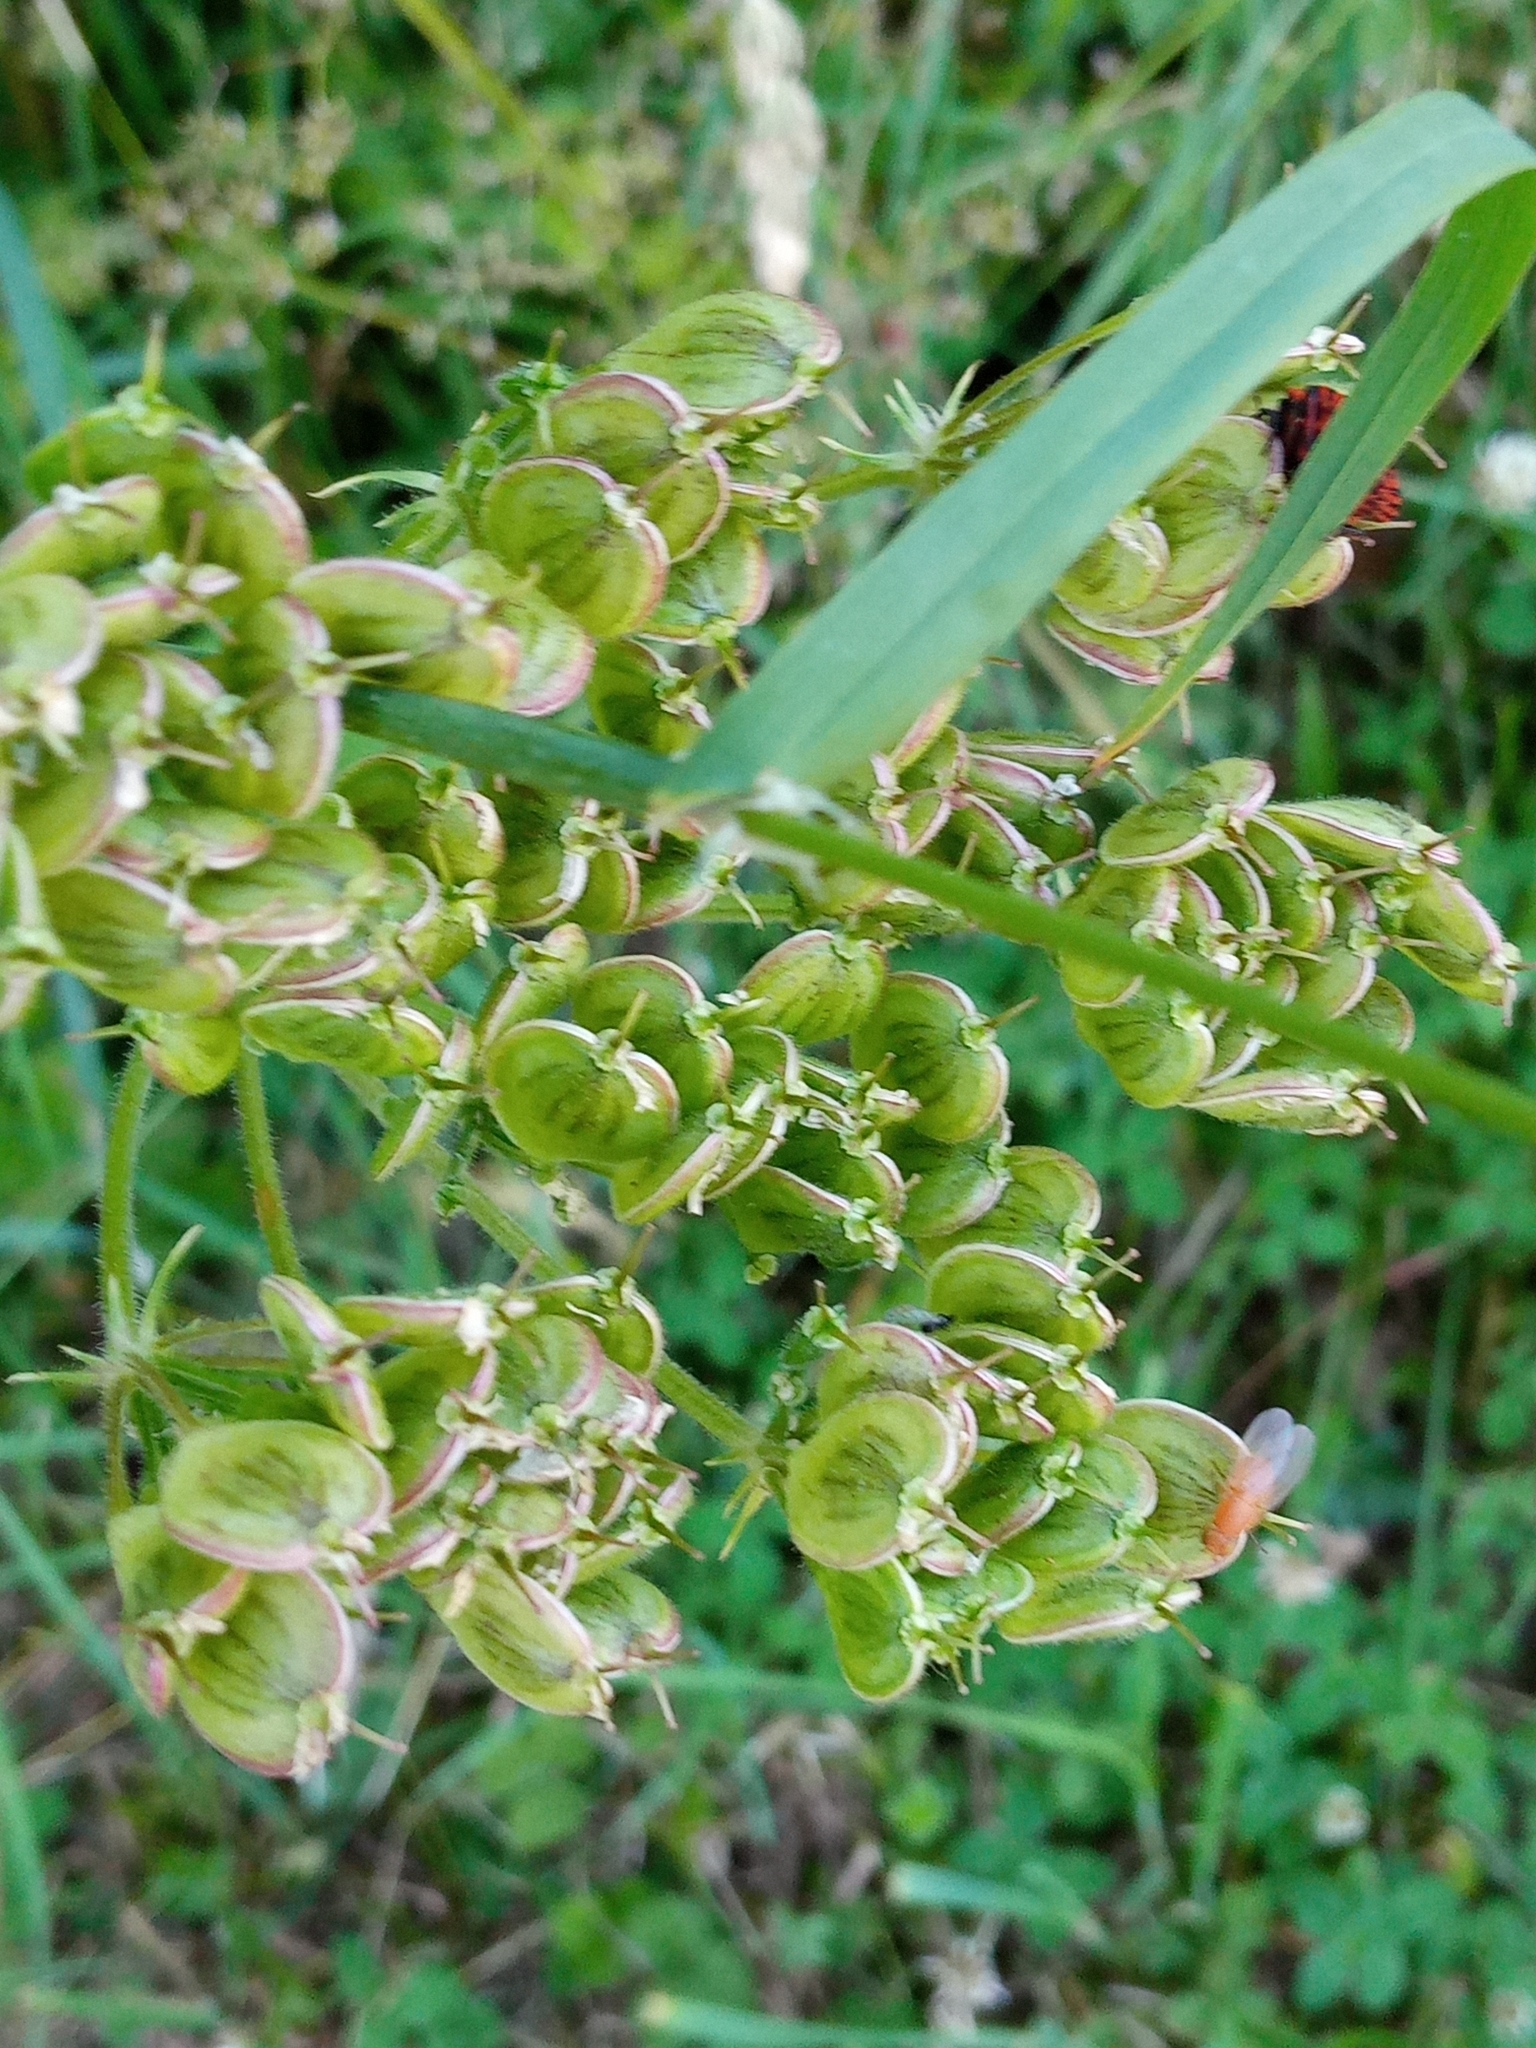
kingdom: Plantae
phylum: Tracheophyta
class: Magnoliopsida
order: Apiales
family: Apiaceae
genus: Heracleum
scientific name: Heracleum sphondylium
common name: Hogweed
